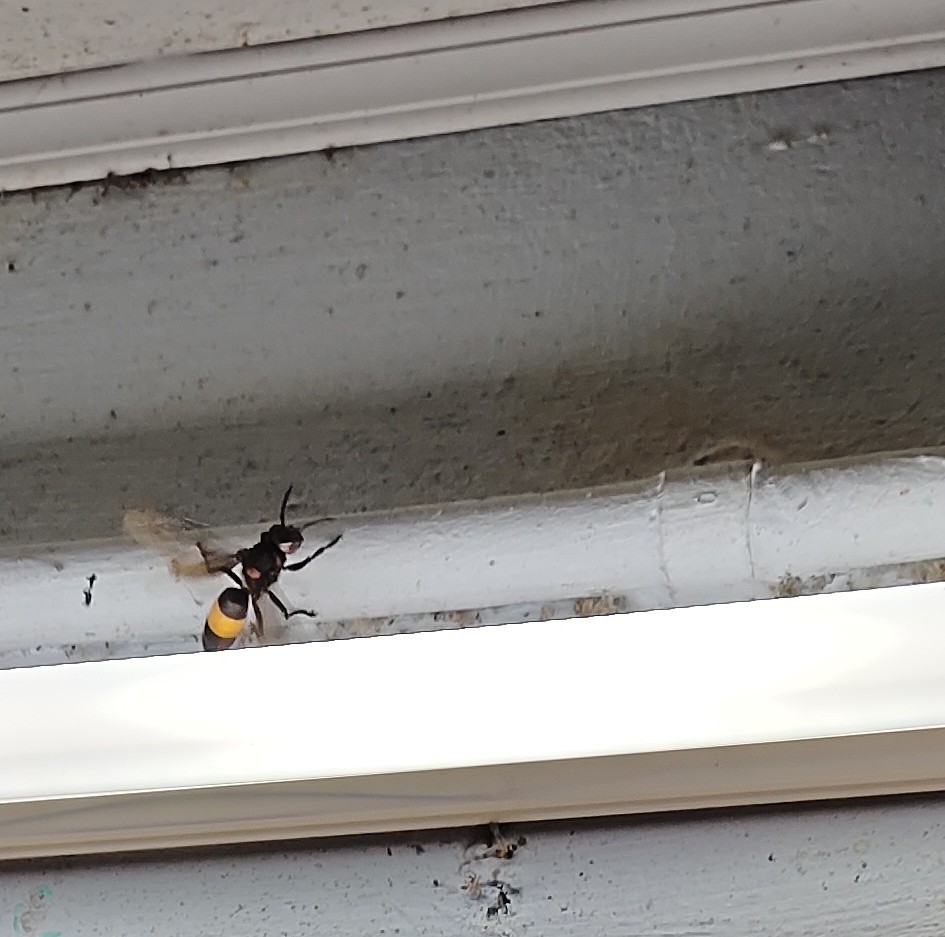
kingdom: Animalia
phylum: Arthropoda
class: Insecta
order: Hymenoptera
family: Vespidae
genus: Vespa
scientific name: Vespa tropica
